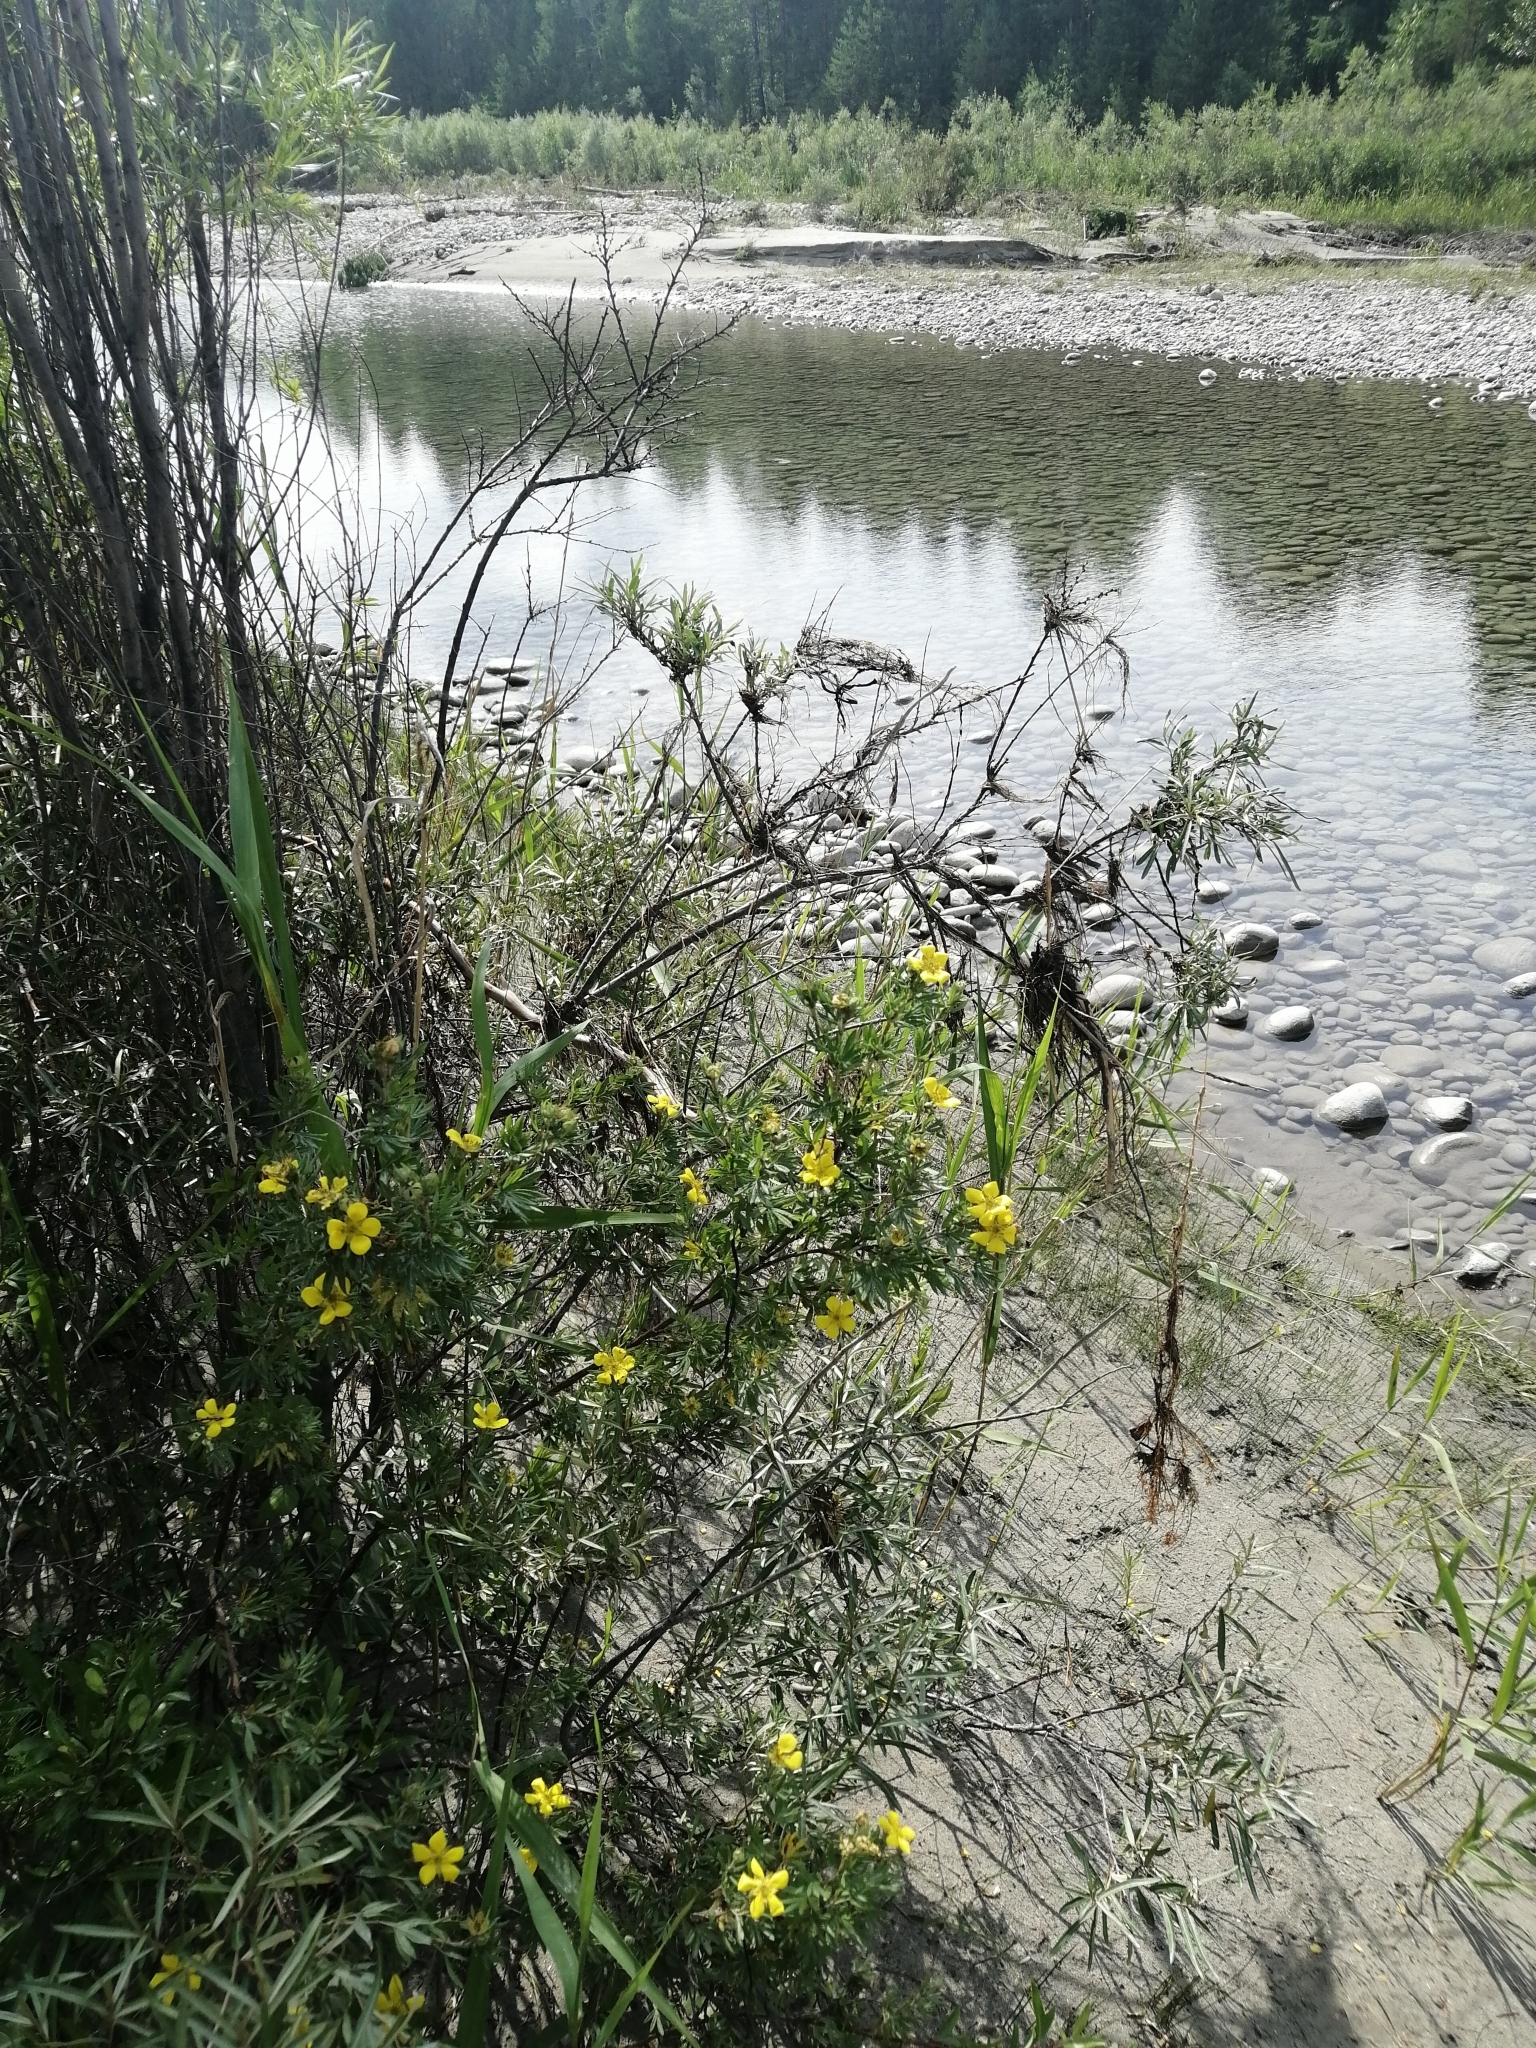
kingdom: Plantae
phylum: Tracheophyta
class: Magnoliopsida
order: Rosales
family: Rosaceae
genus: Dasiphora
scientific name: Dasiphora fruticosa
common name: Shrubby cinquefoil
